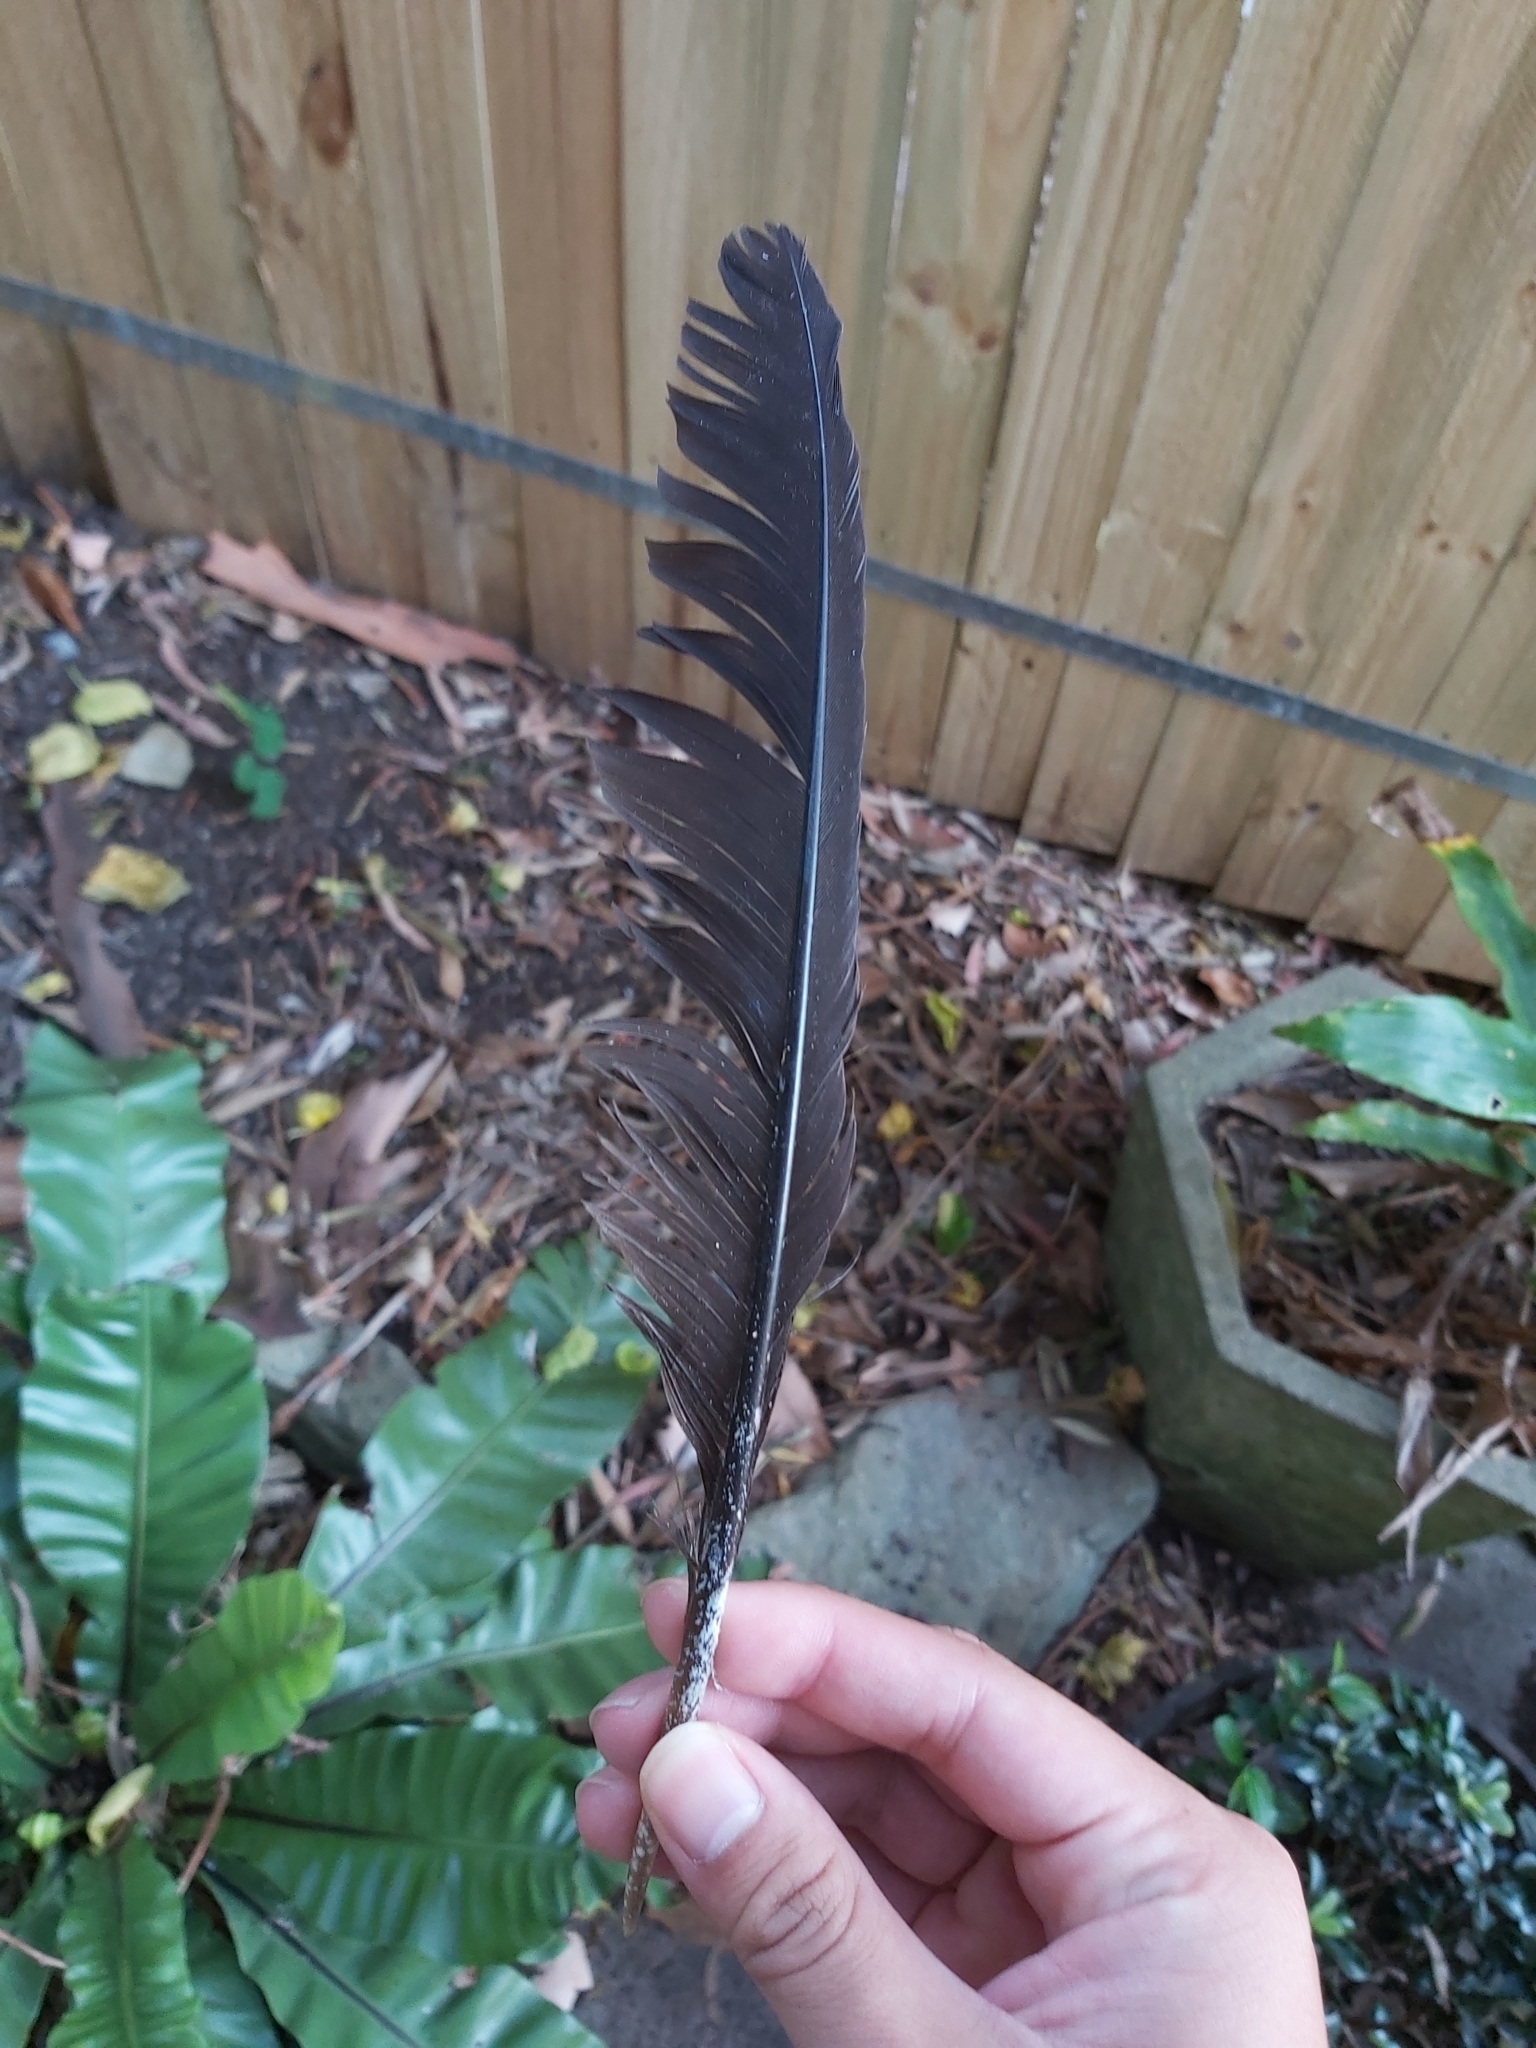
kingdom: Animalia
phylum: Chordata
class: Aves
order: Galliformes
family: Megapodiidae
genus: Alectura
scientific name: Alectura lathami
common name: Australian brushturkey
